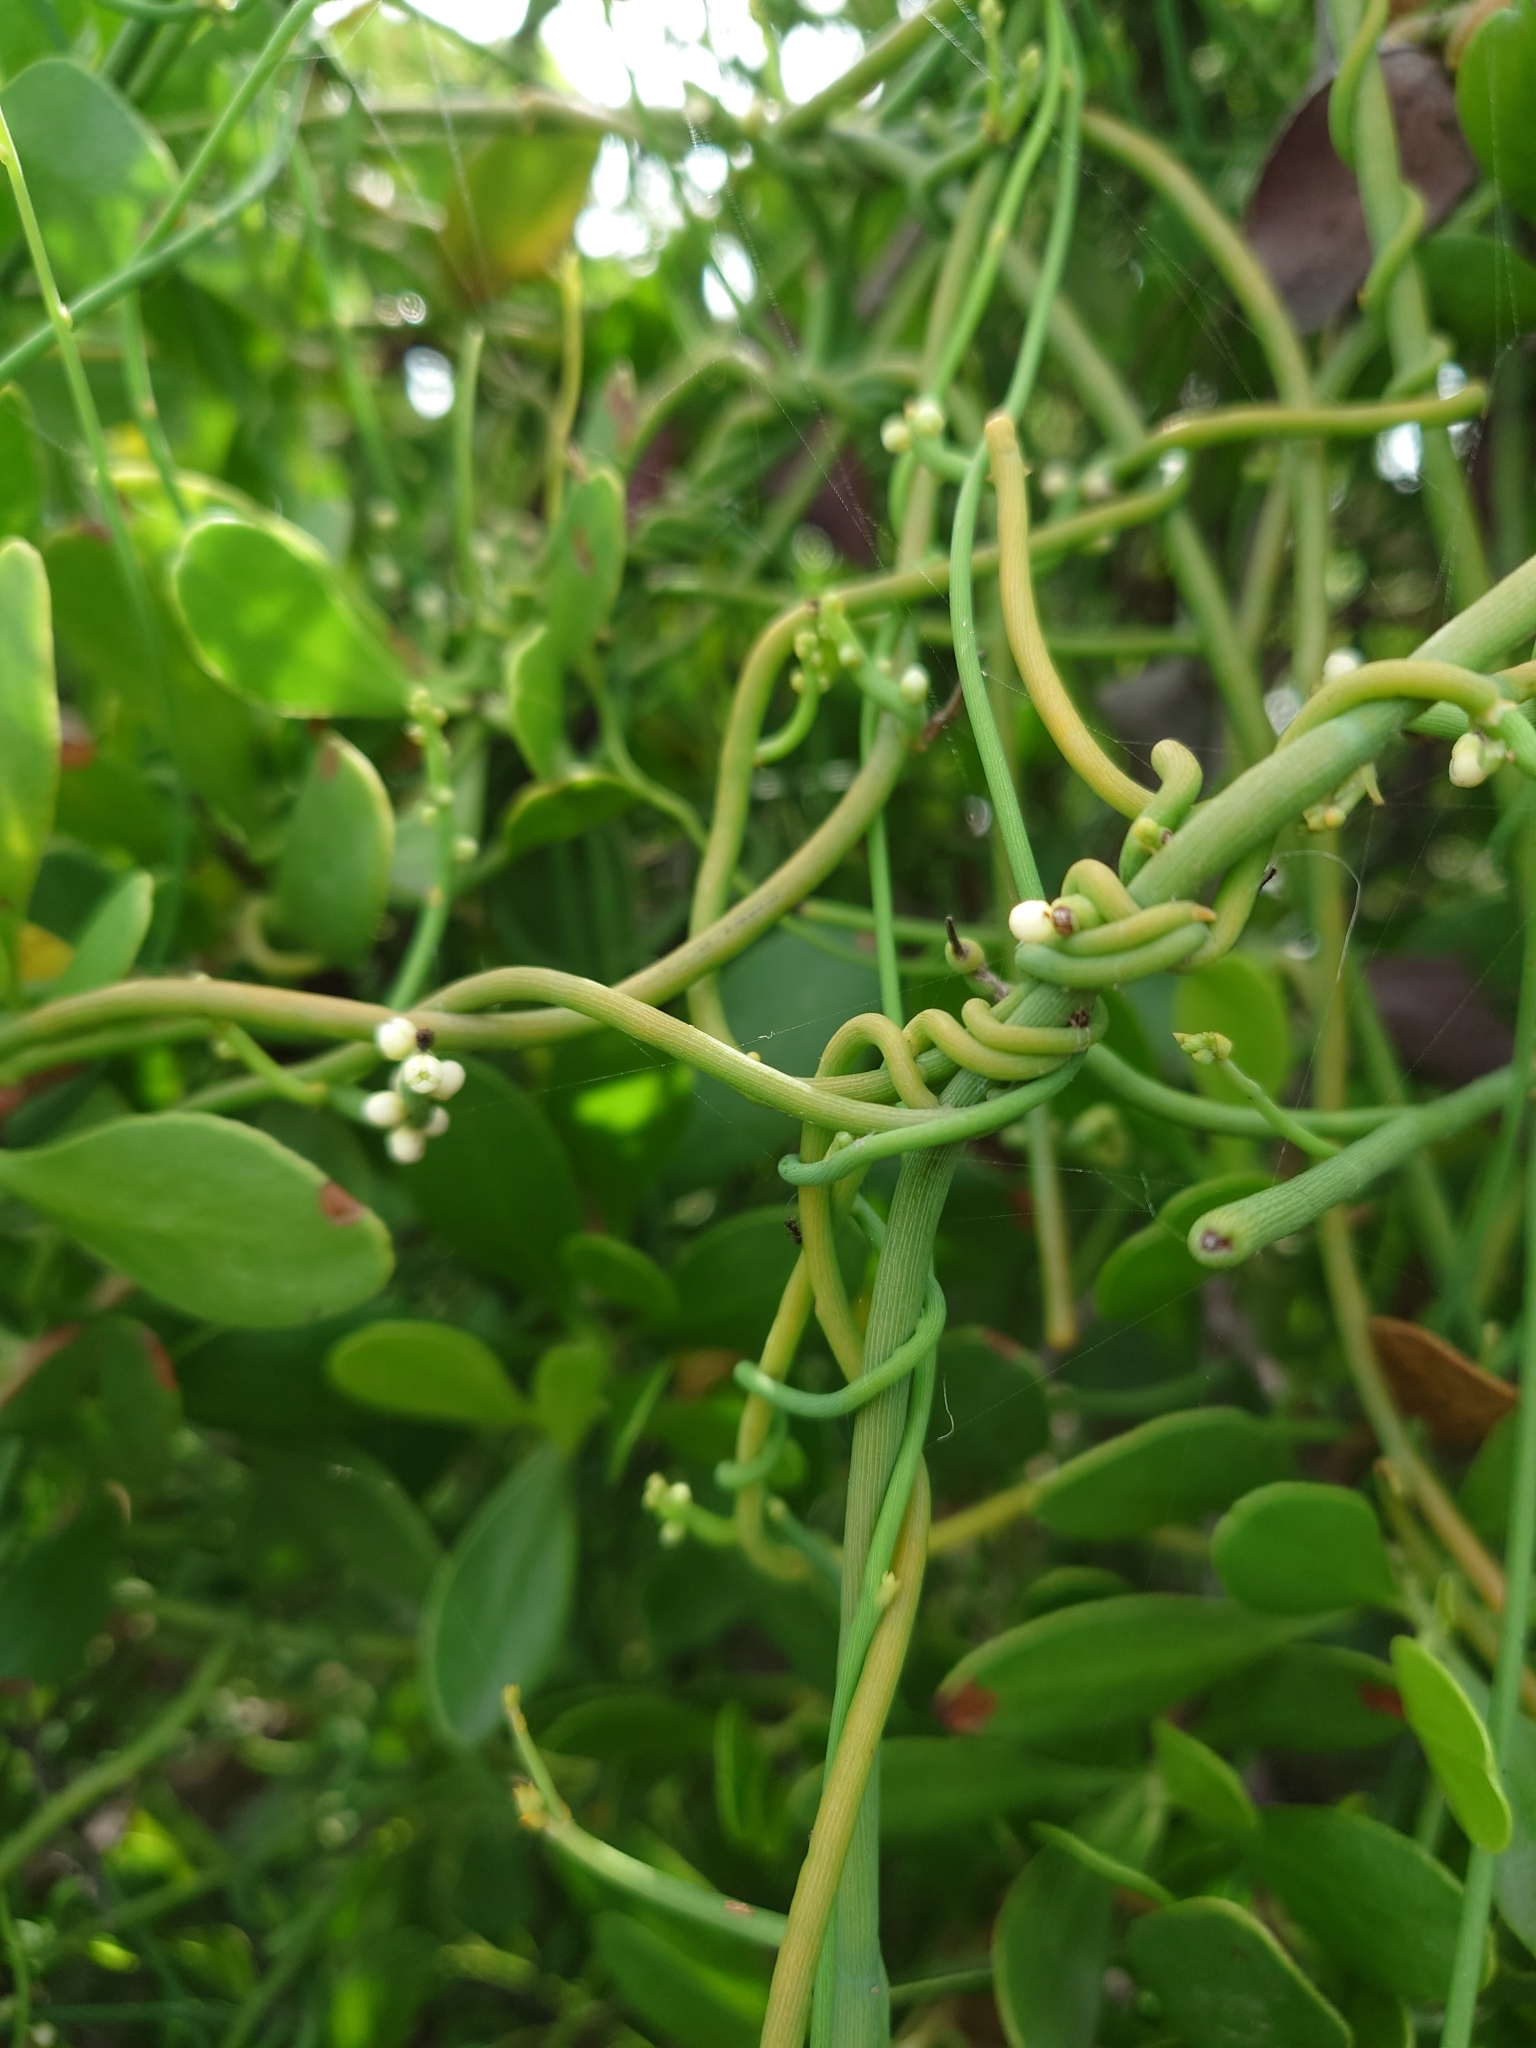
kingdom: Plantae
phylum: Tracheophyta
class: Magnoliopsida
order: Laurales
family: Lauraceae
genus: Cassytha
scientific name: Cassytha filiformis
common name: Dodder-laurel
